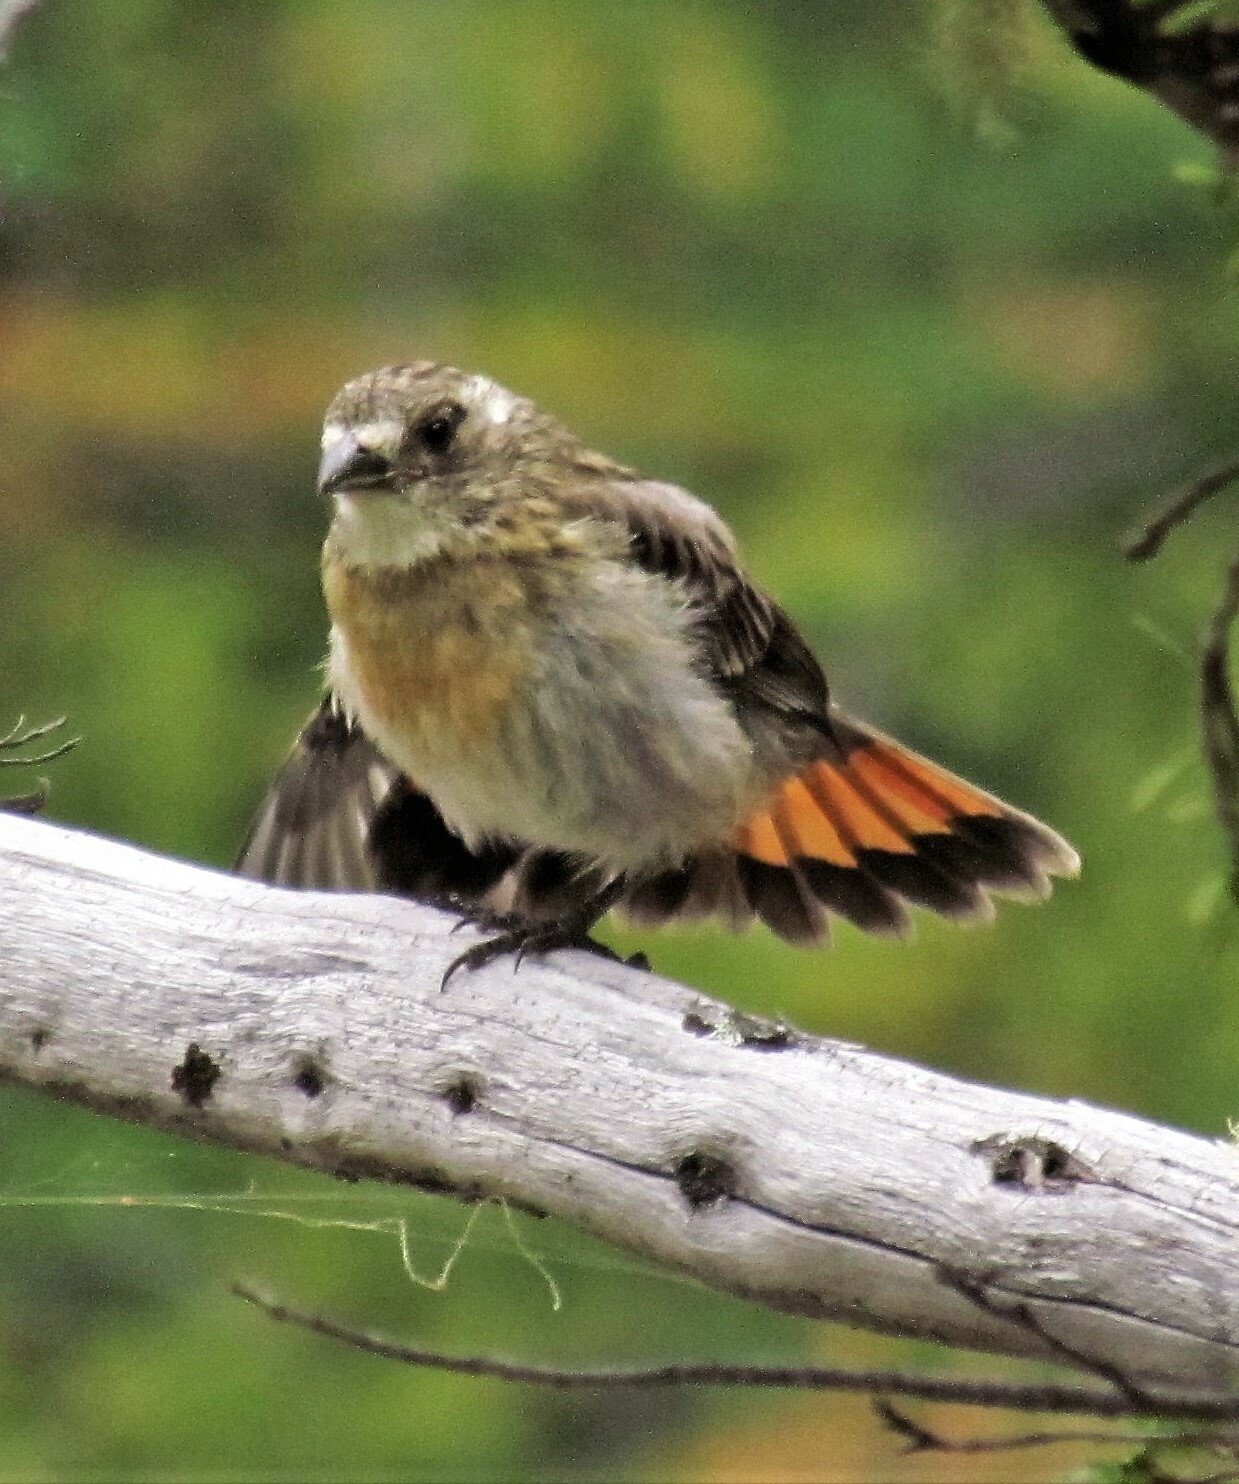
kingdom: Animalia
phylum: Chordata
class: Aves
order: Passeriformes
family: Cotingidae
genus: Phytotoma
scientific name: Phytotoma rara
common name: Rufous-tailed plantcutter
